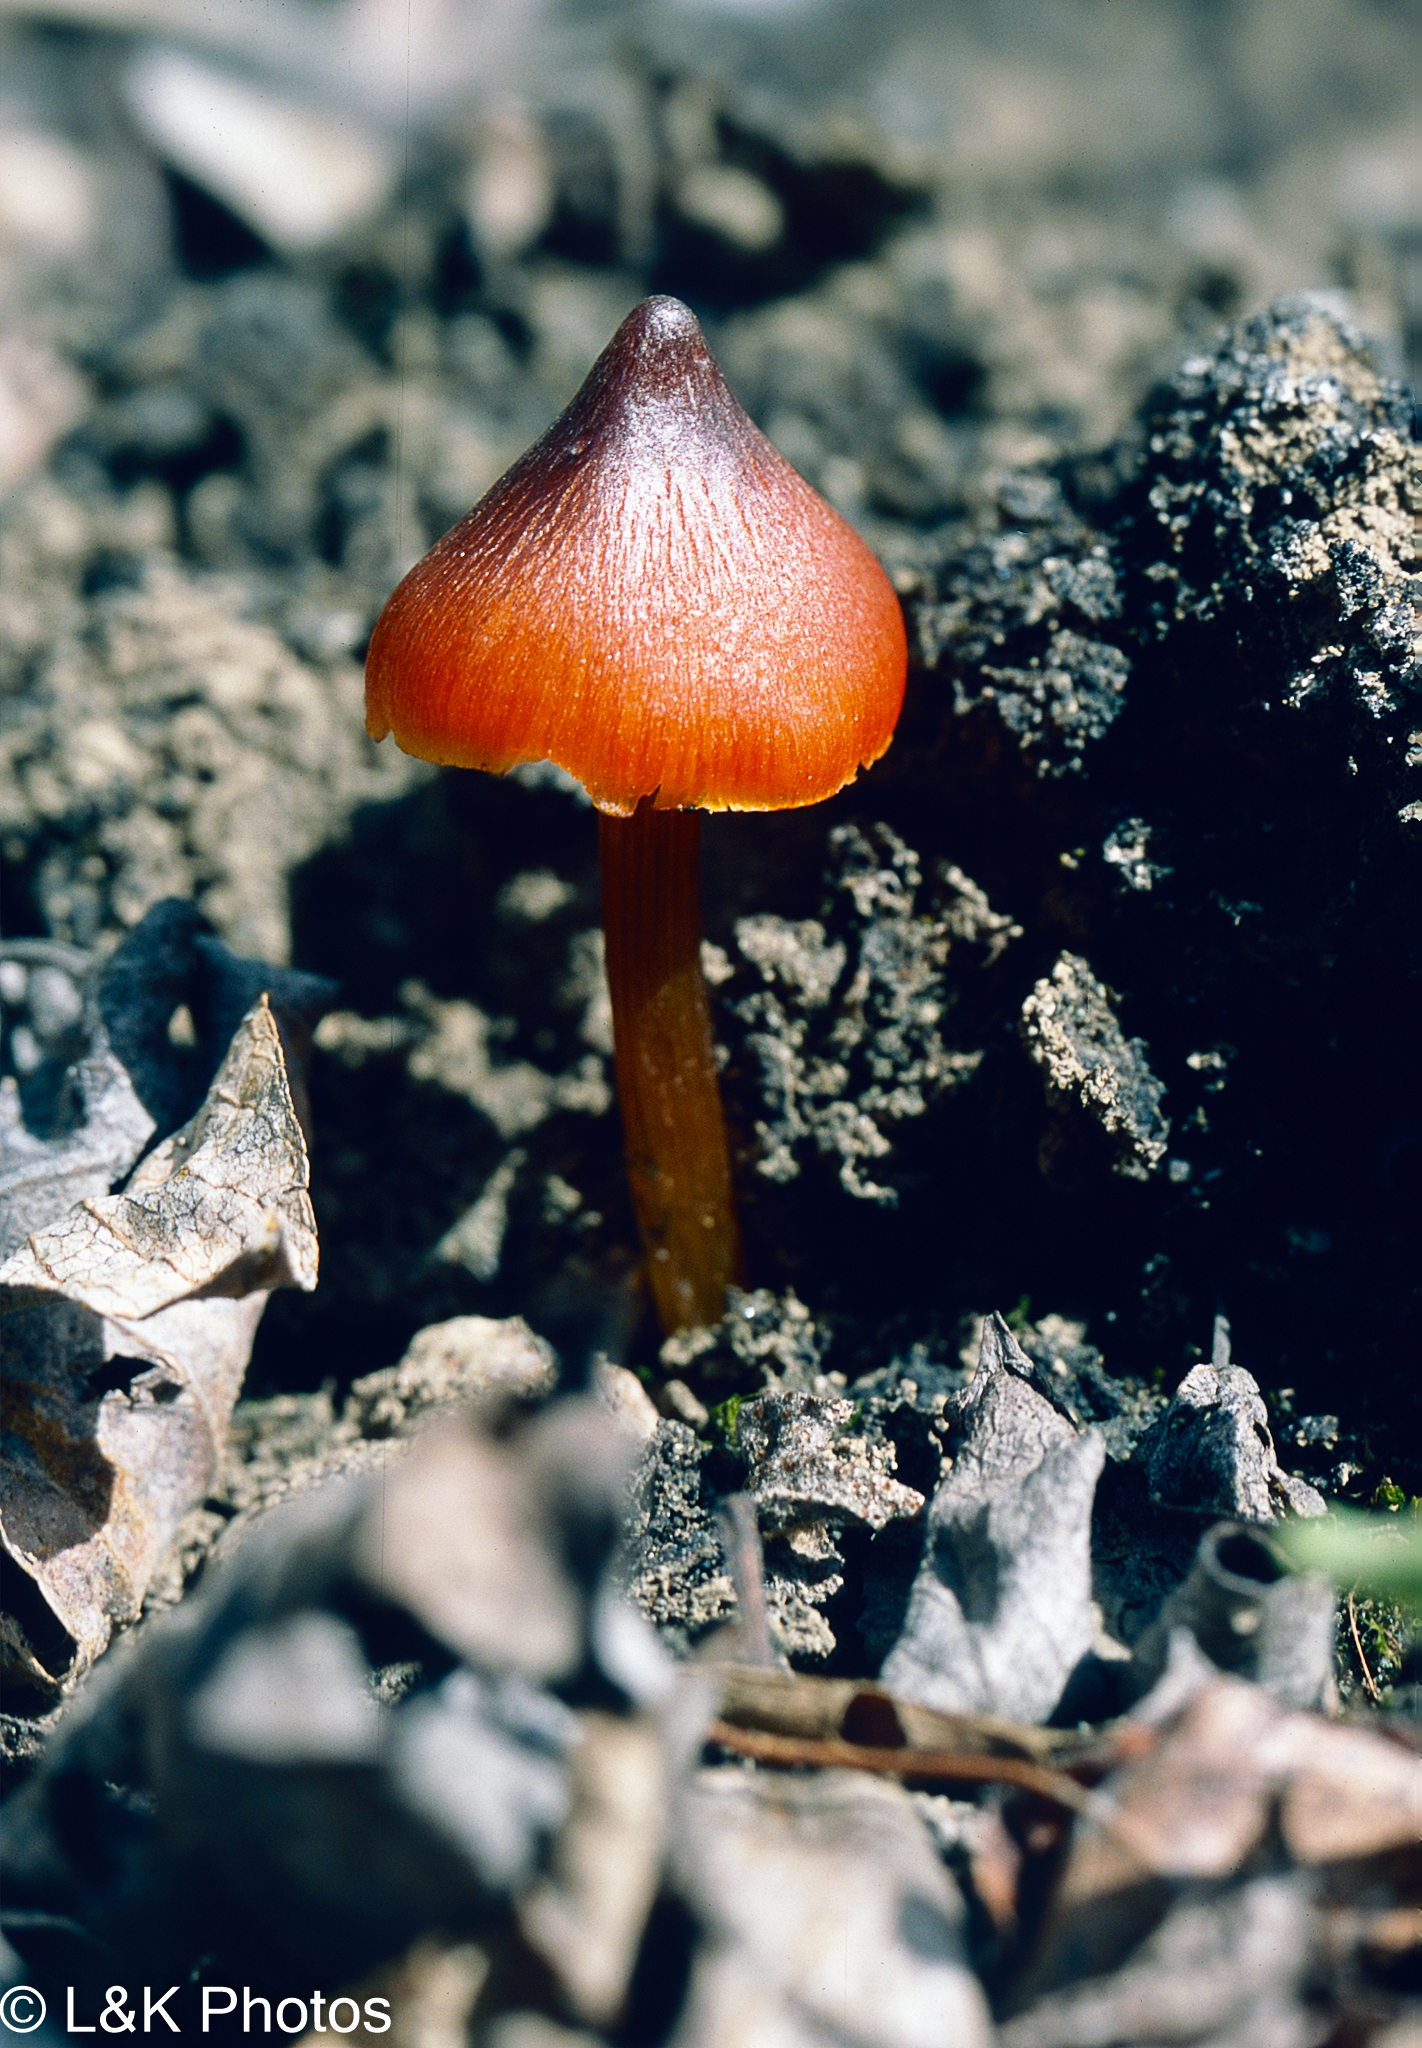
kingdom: Fungi
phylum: Basidiomycota
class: Agaricomycetes
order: Agaricales
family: Hygrophoraceae
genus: Hygrocybe
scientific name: Hygrocybe conica
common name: Blackening wax-cap
